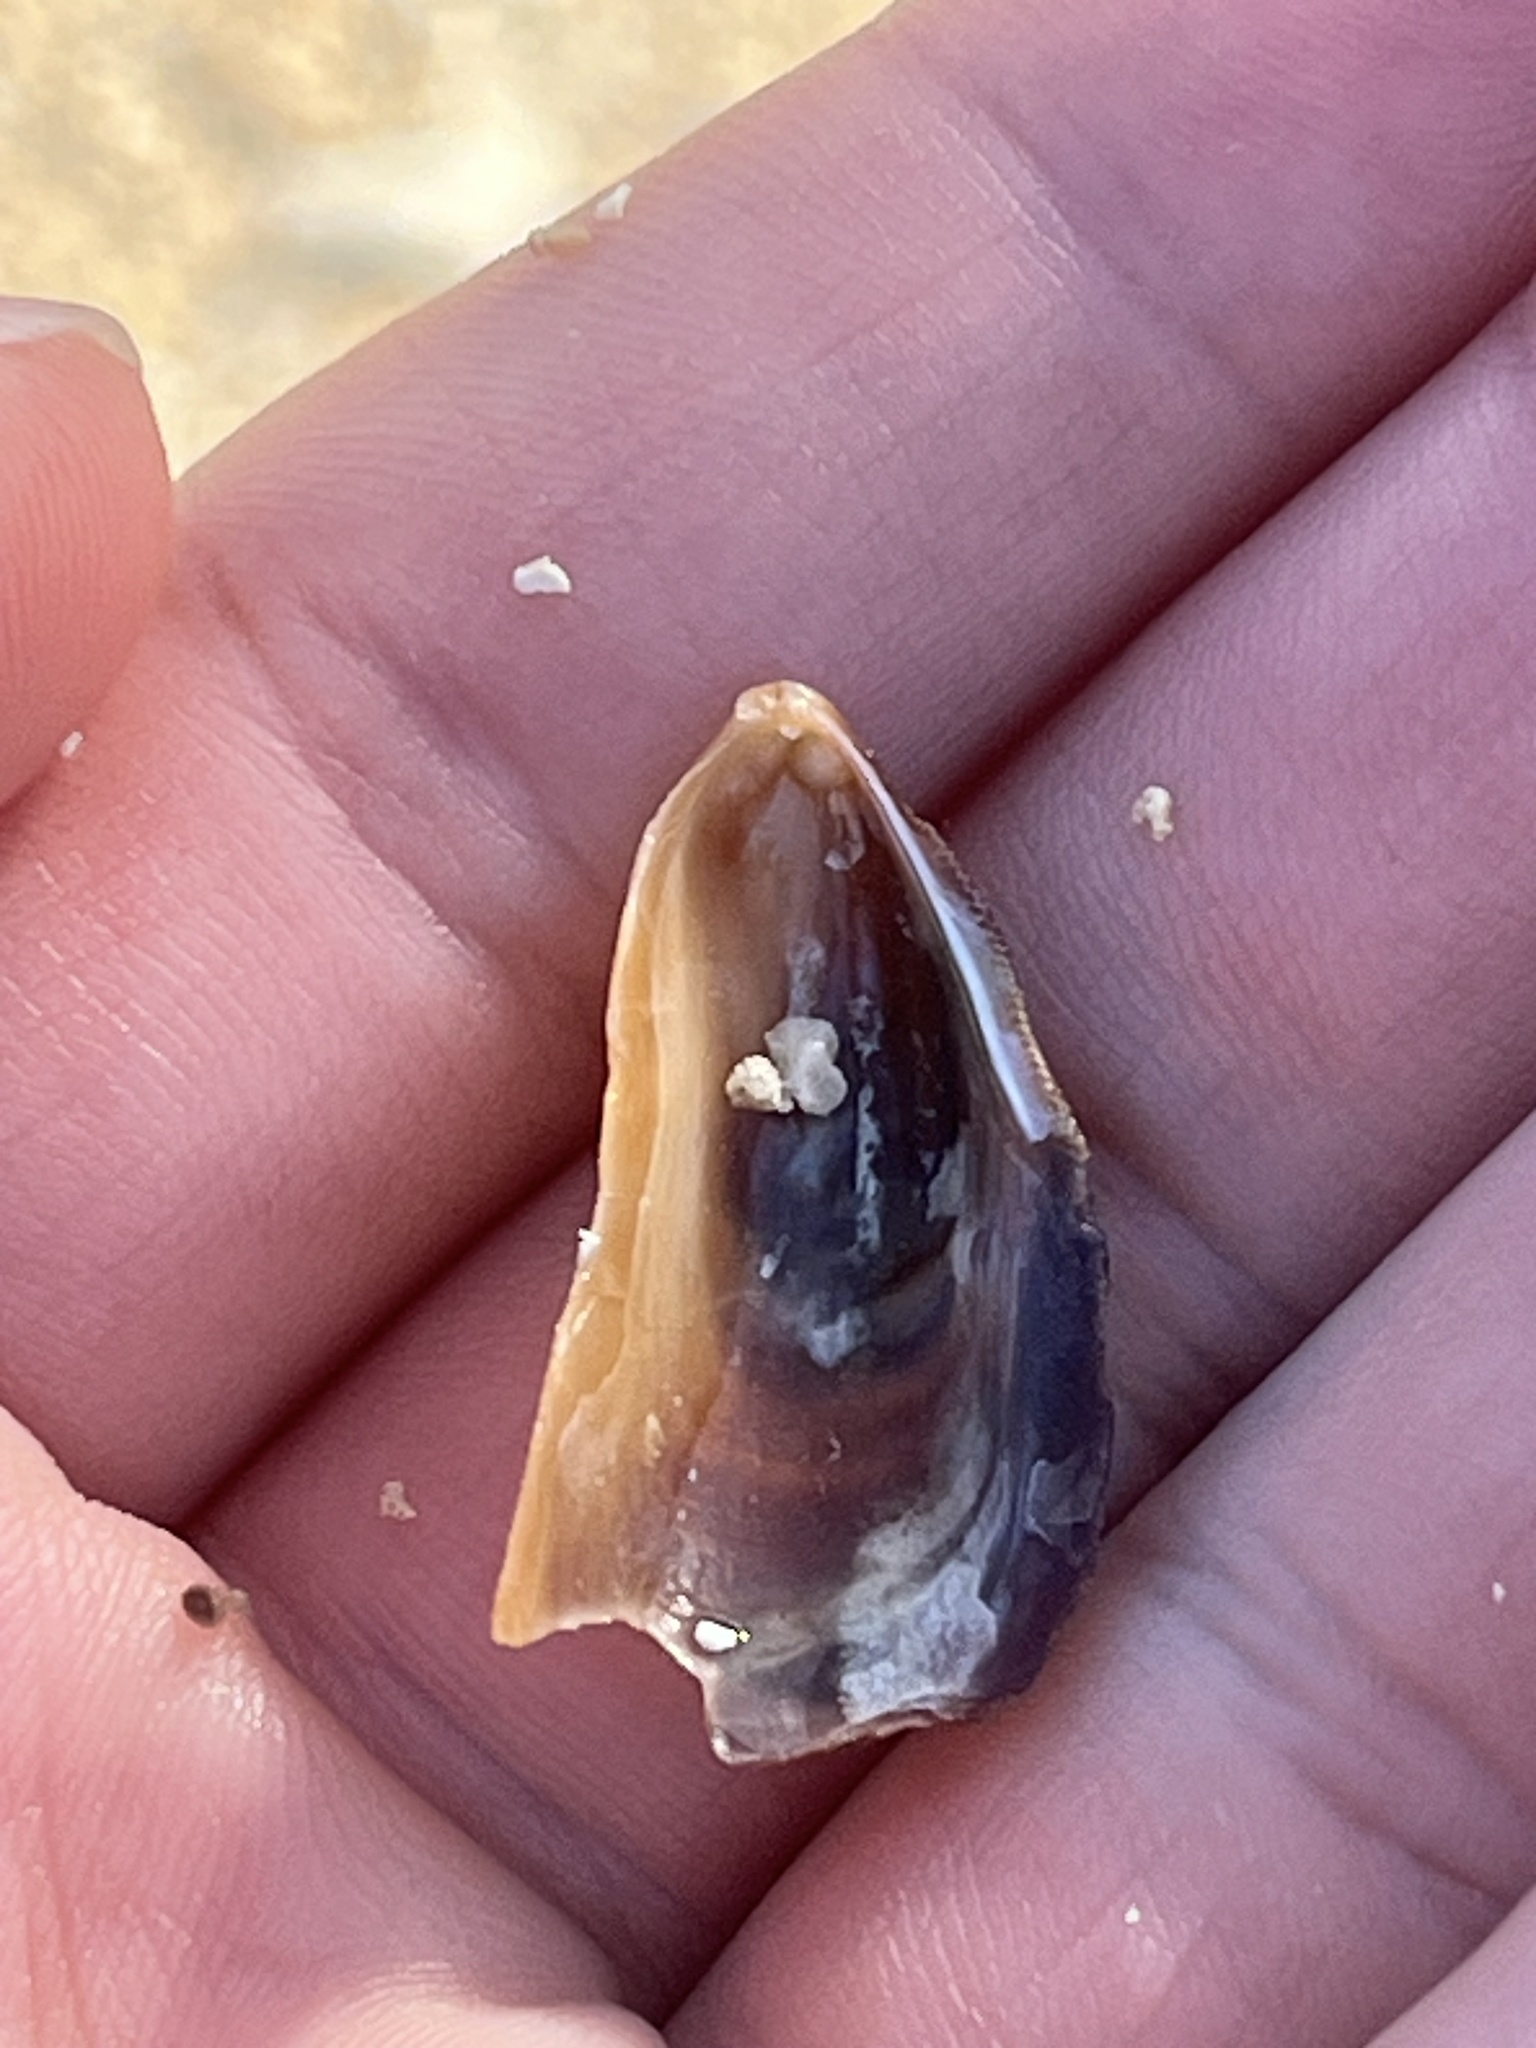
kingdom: Animalia
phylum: Mollusca
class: Bivalvia
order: Mytilida
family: Mytilidae
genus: Brachidontes
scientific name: Brachidontes crebristriatus
